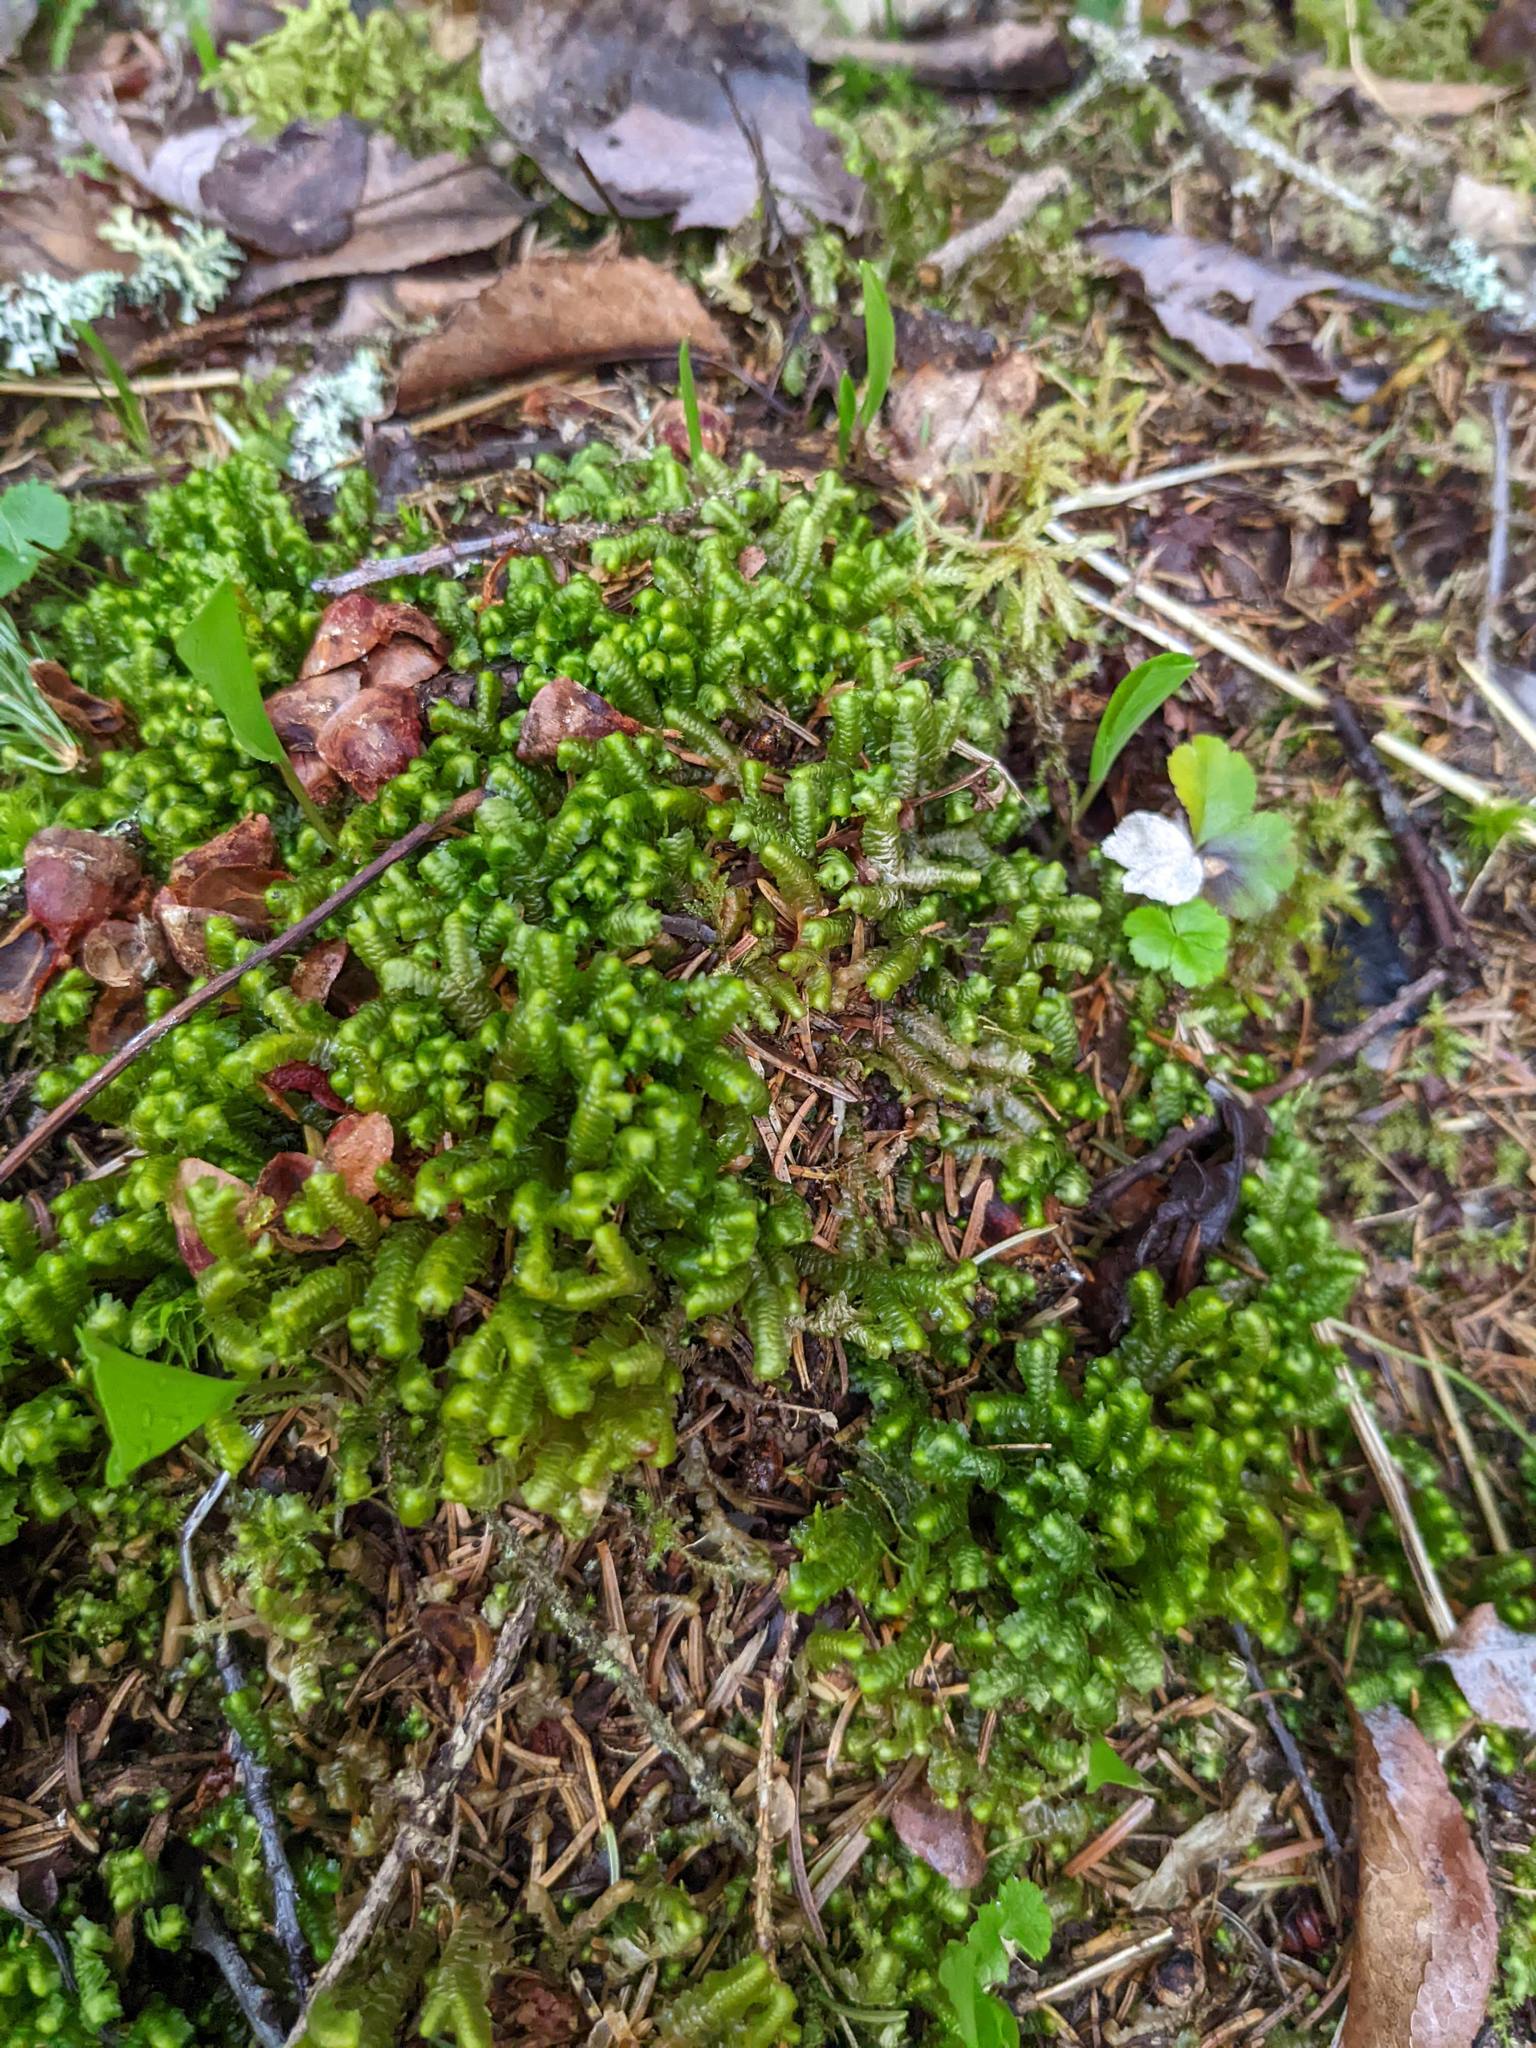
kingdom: Plantae
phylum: Marchantiophyta
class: Jungermanniopsida
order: Jungermanniales
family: Lepidoziaceae
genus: Bazzania
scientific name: Bazzania trilobata
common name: Three-lobed whipwort
